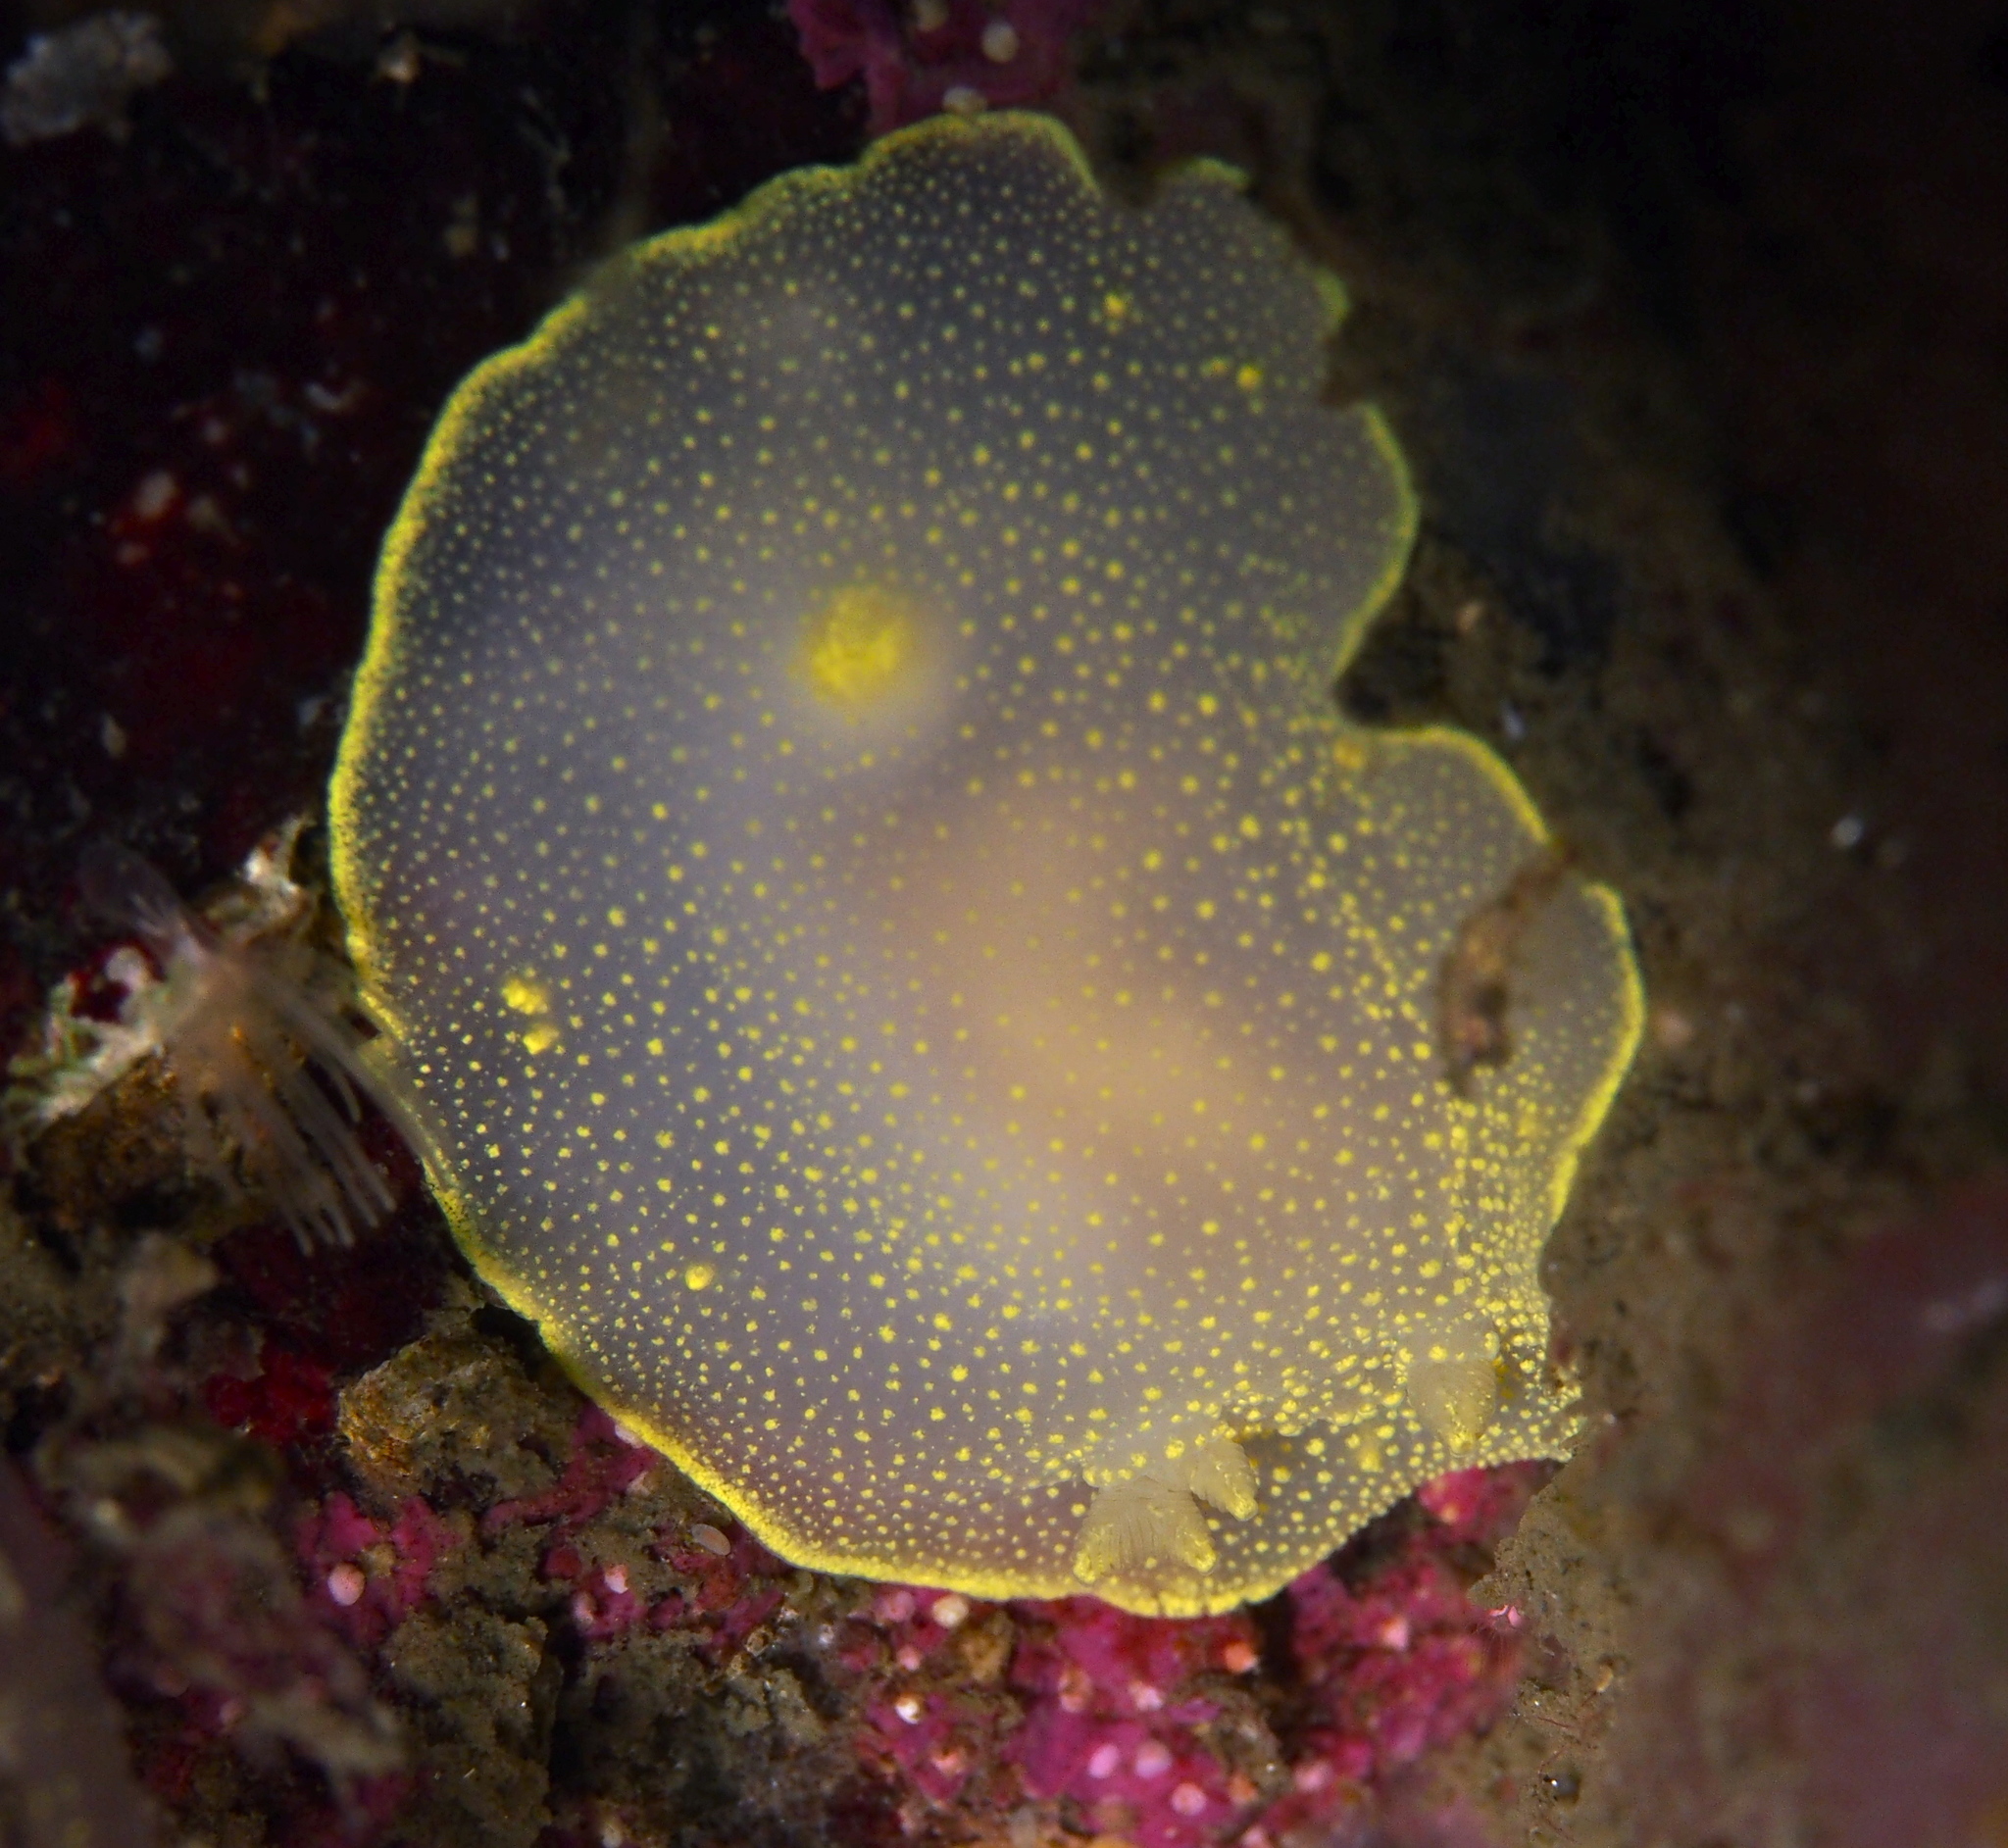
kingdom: Animalia
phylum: Mollusca
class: Gastropoda
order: Nudibranchia
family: Cadlinidae
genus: Cadlina
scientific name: Cadlina laevis
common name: White atlantic cadlina
